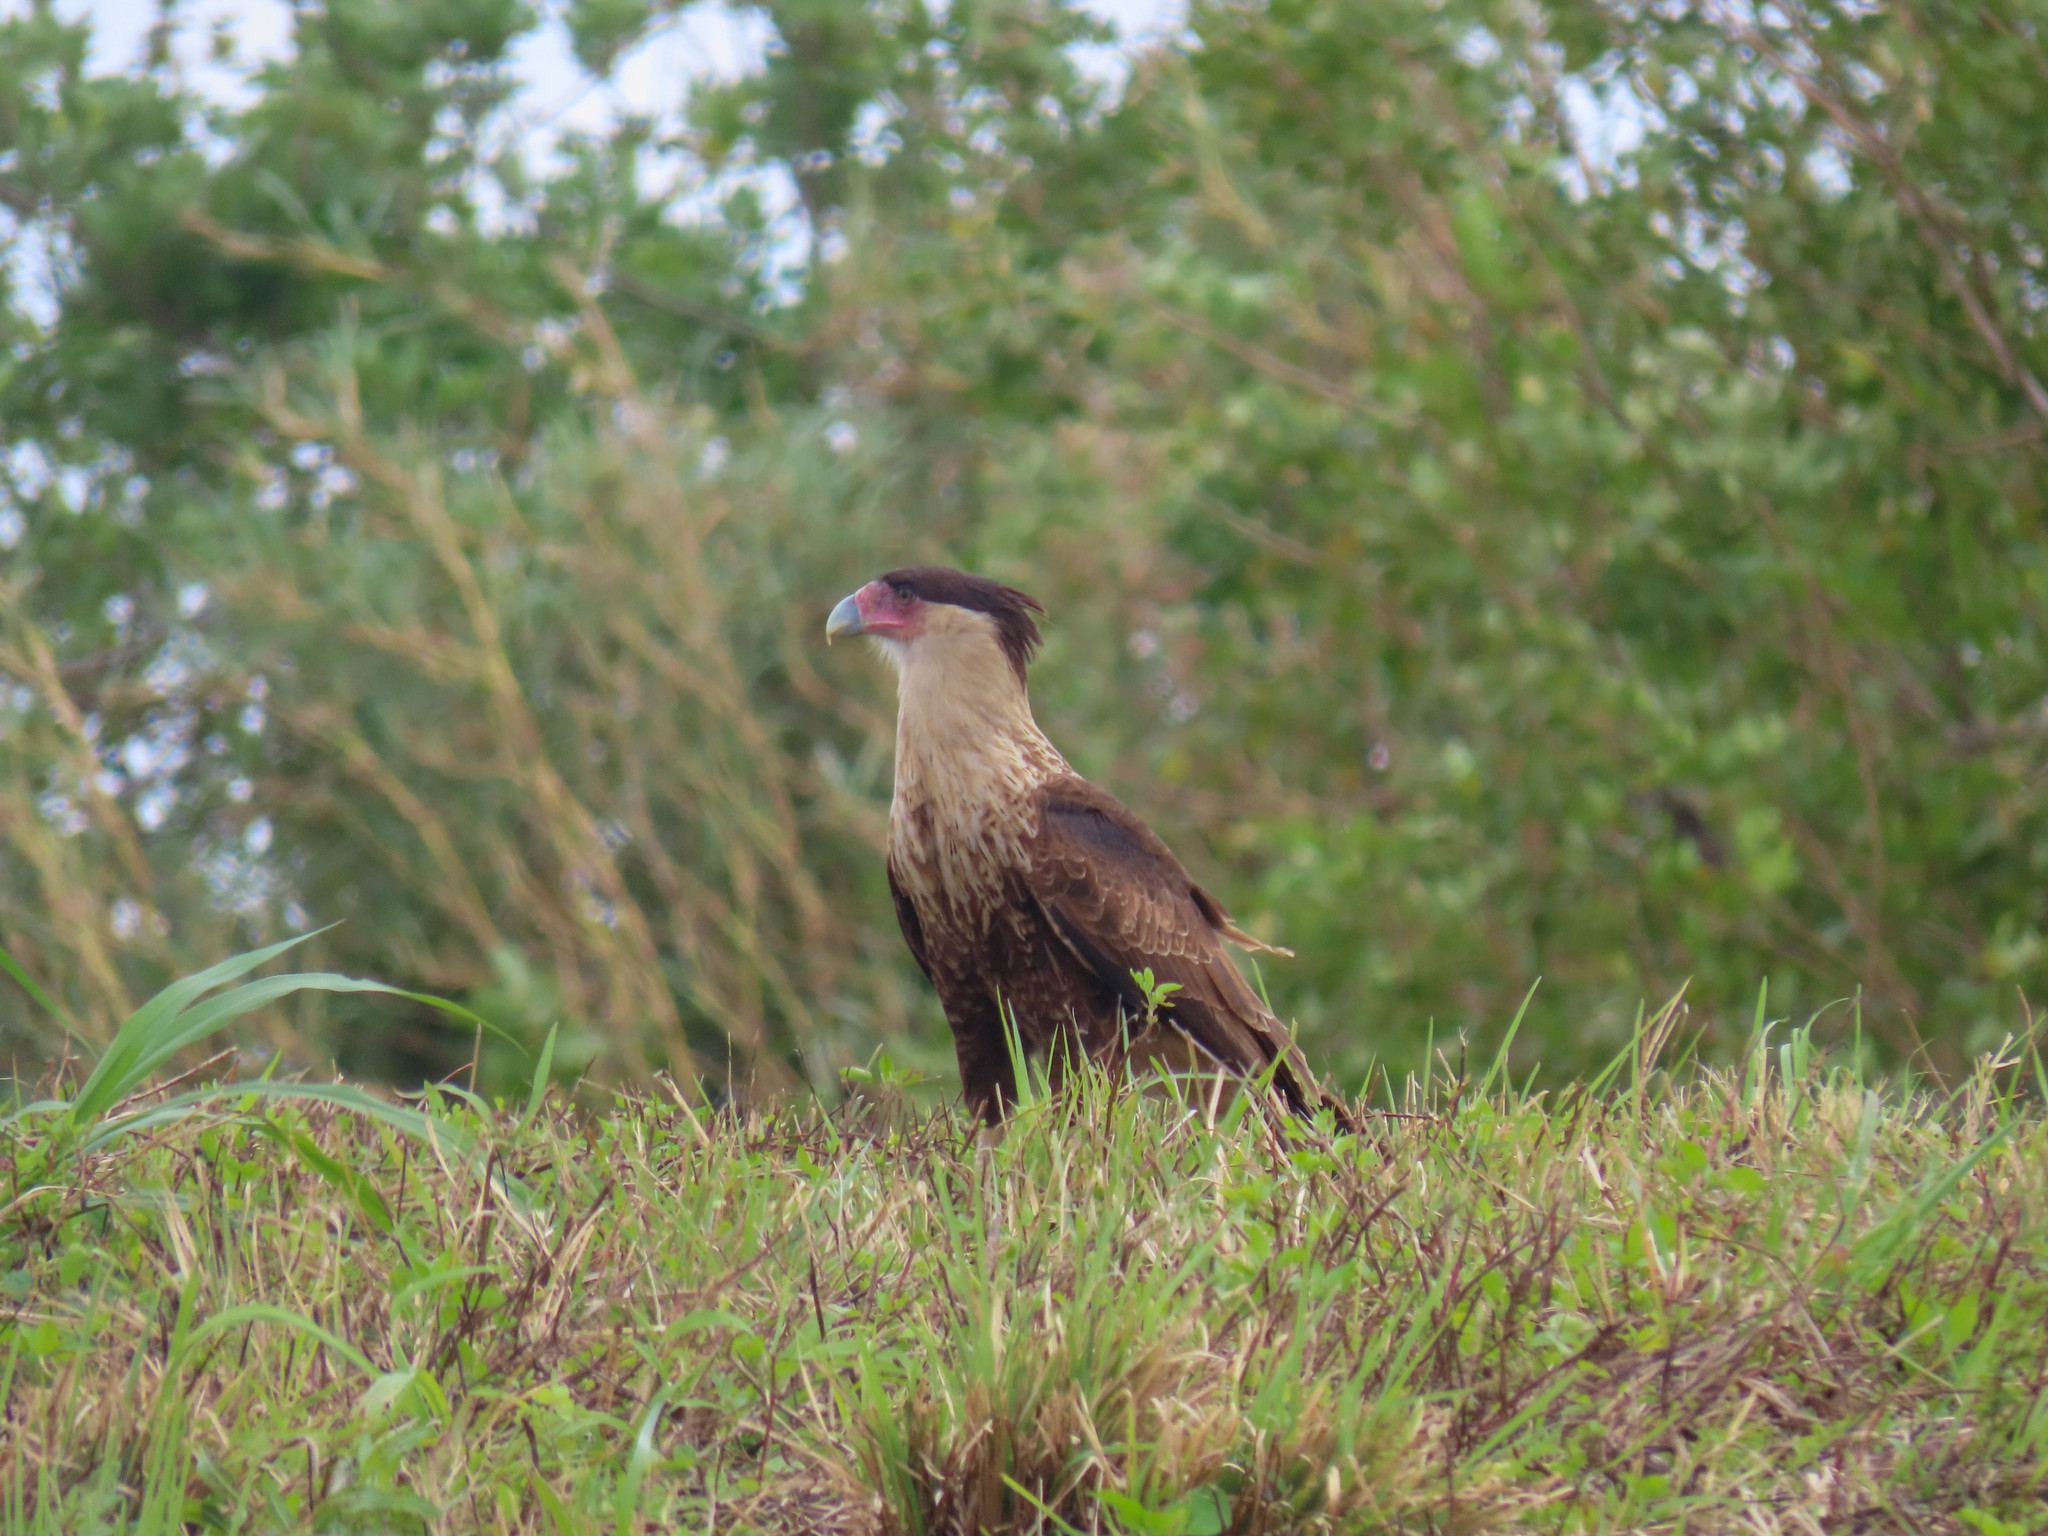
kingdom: Animalia
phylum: Chordata
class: Aves
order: Falconiformes
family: Falconidae
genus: Caracara
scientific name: Caracara plancus
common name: Southern caracara
